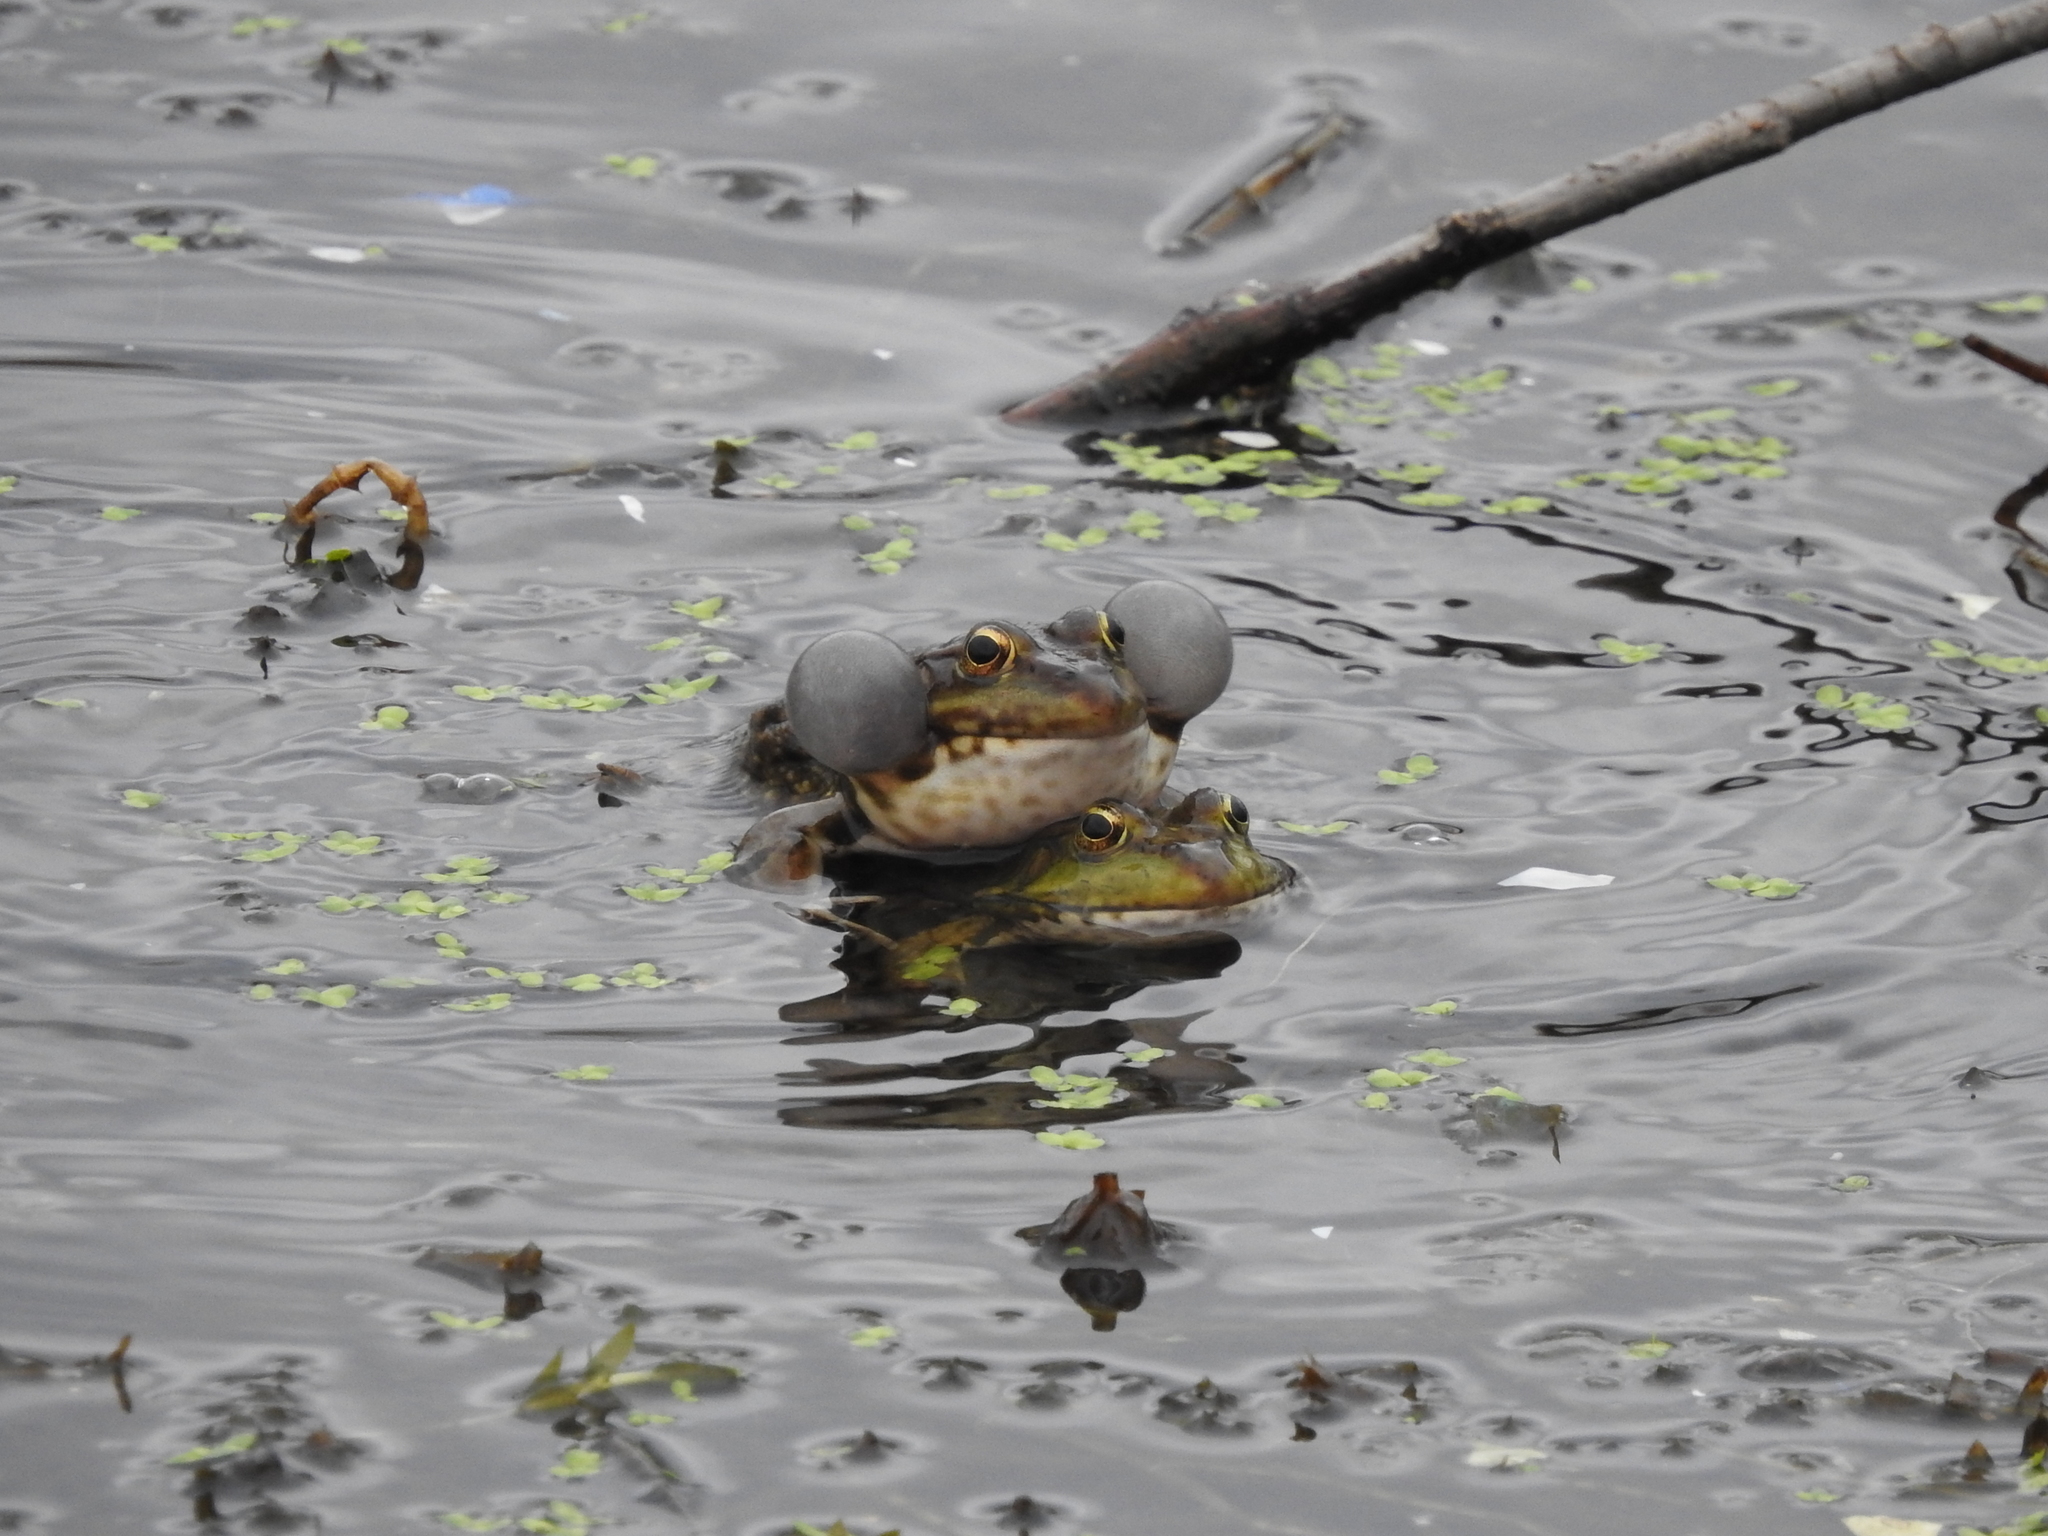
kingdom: Animalia
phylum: Chordata
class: Amphibia
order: Anura
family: Ranidae
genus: Pelophylax
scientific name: Pelophylax ridibundus
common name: Marsh frog
